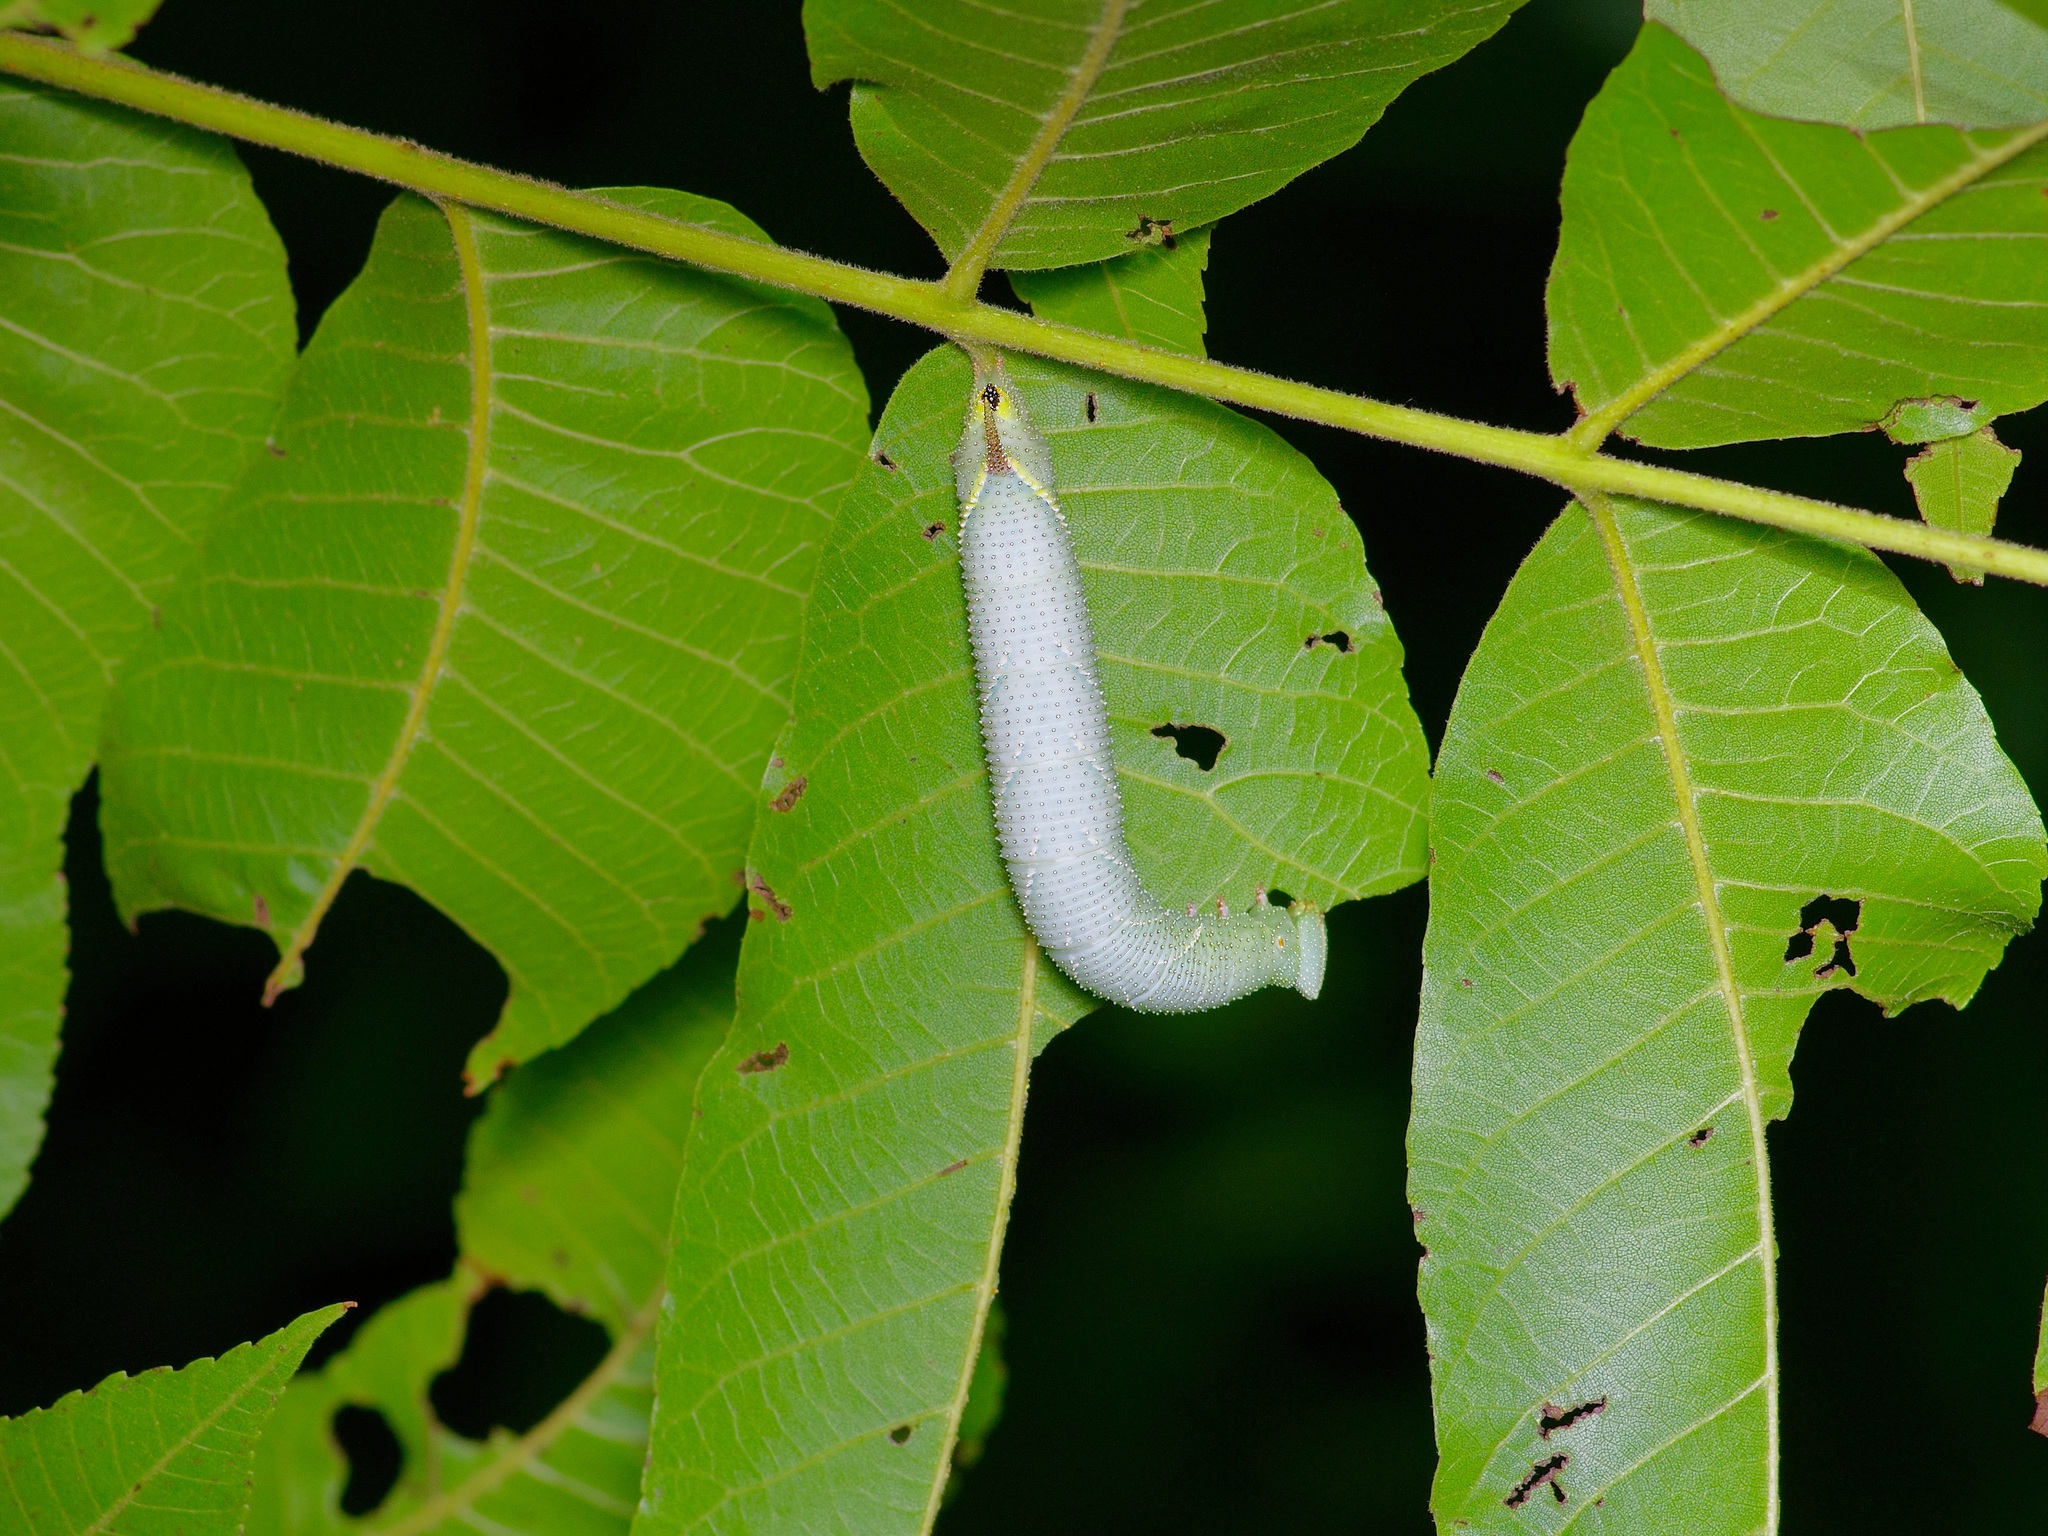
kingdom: Animalia
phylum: Arthropoda
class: Insecta
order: Lepidoptera
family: Sphingidae
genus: Amorpha
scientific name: Amorpha juglandis
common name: Walnut sphinx
